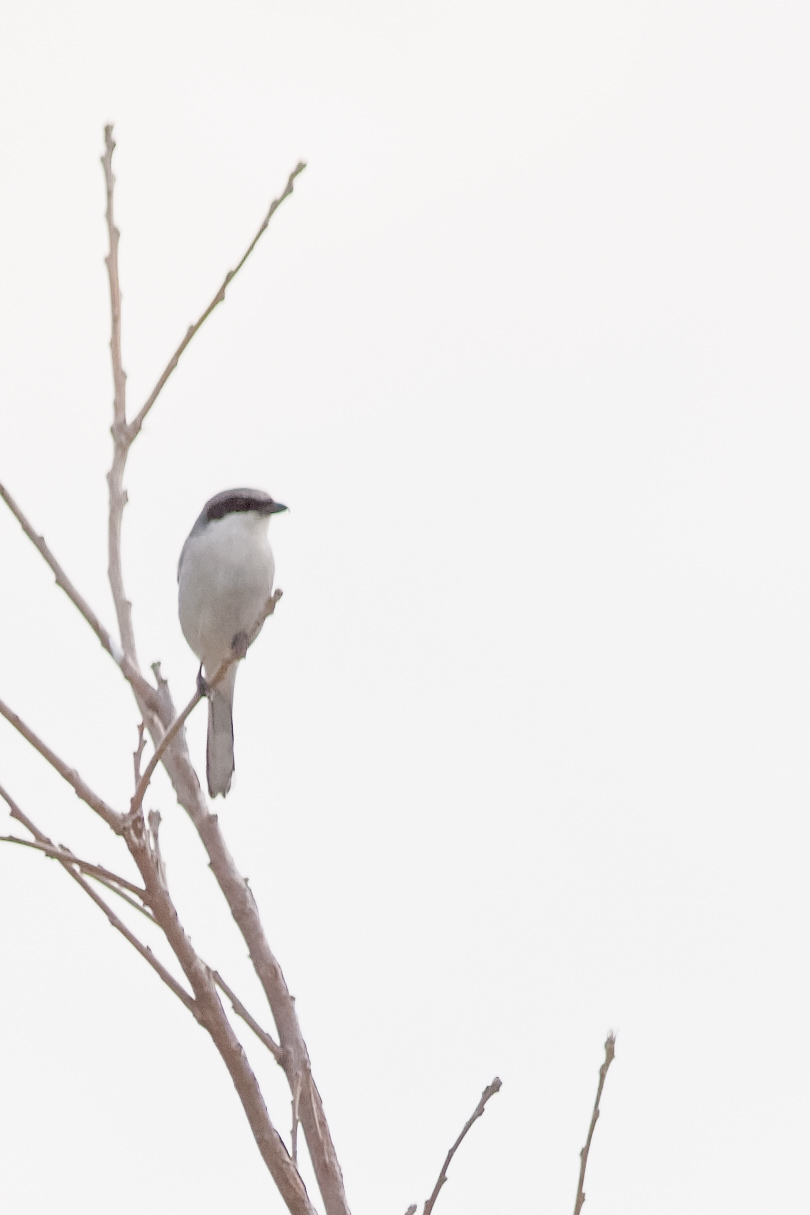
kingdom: Animalia
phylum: Chordata
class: Aves
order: Passeriformes
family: Laniidae
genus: Lanius
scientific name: Lanius ludovicianus
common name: Loggerhead shrike
